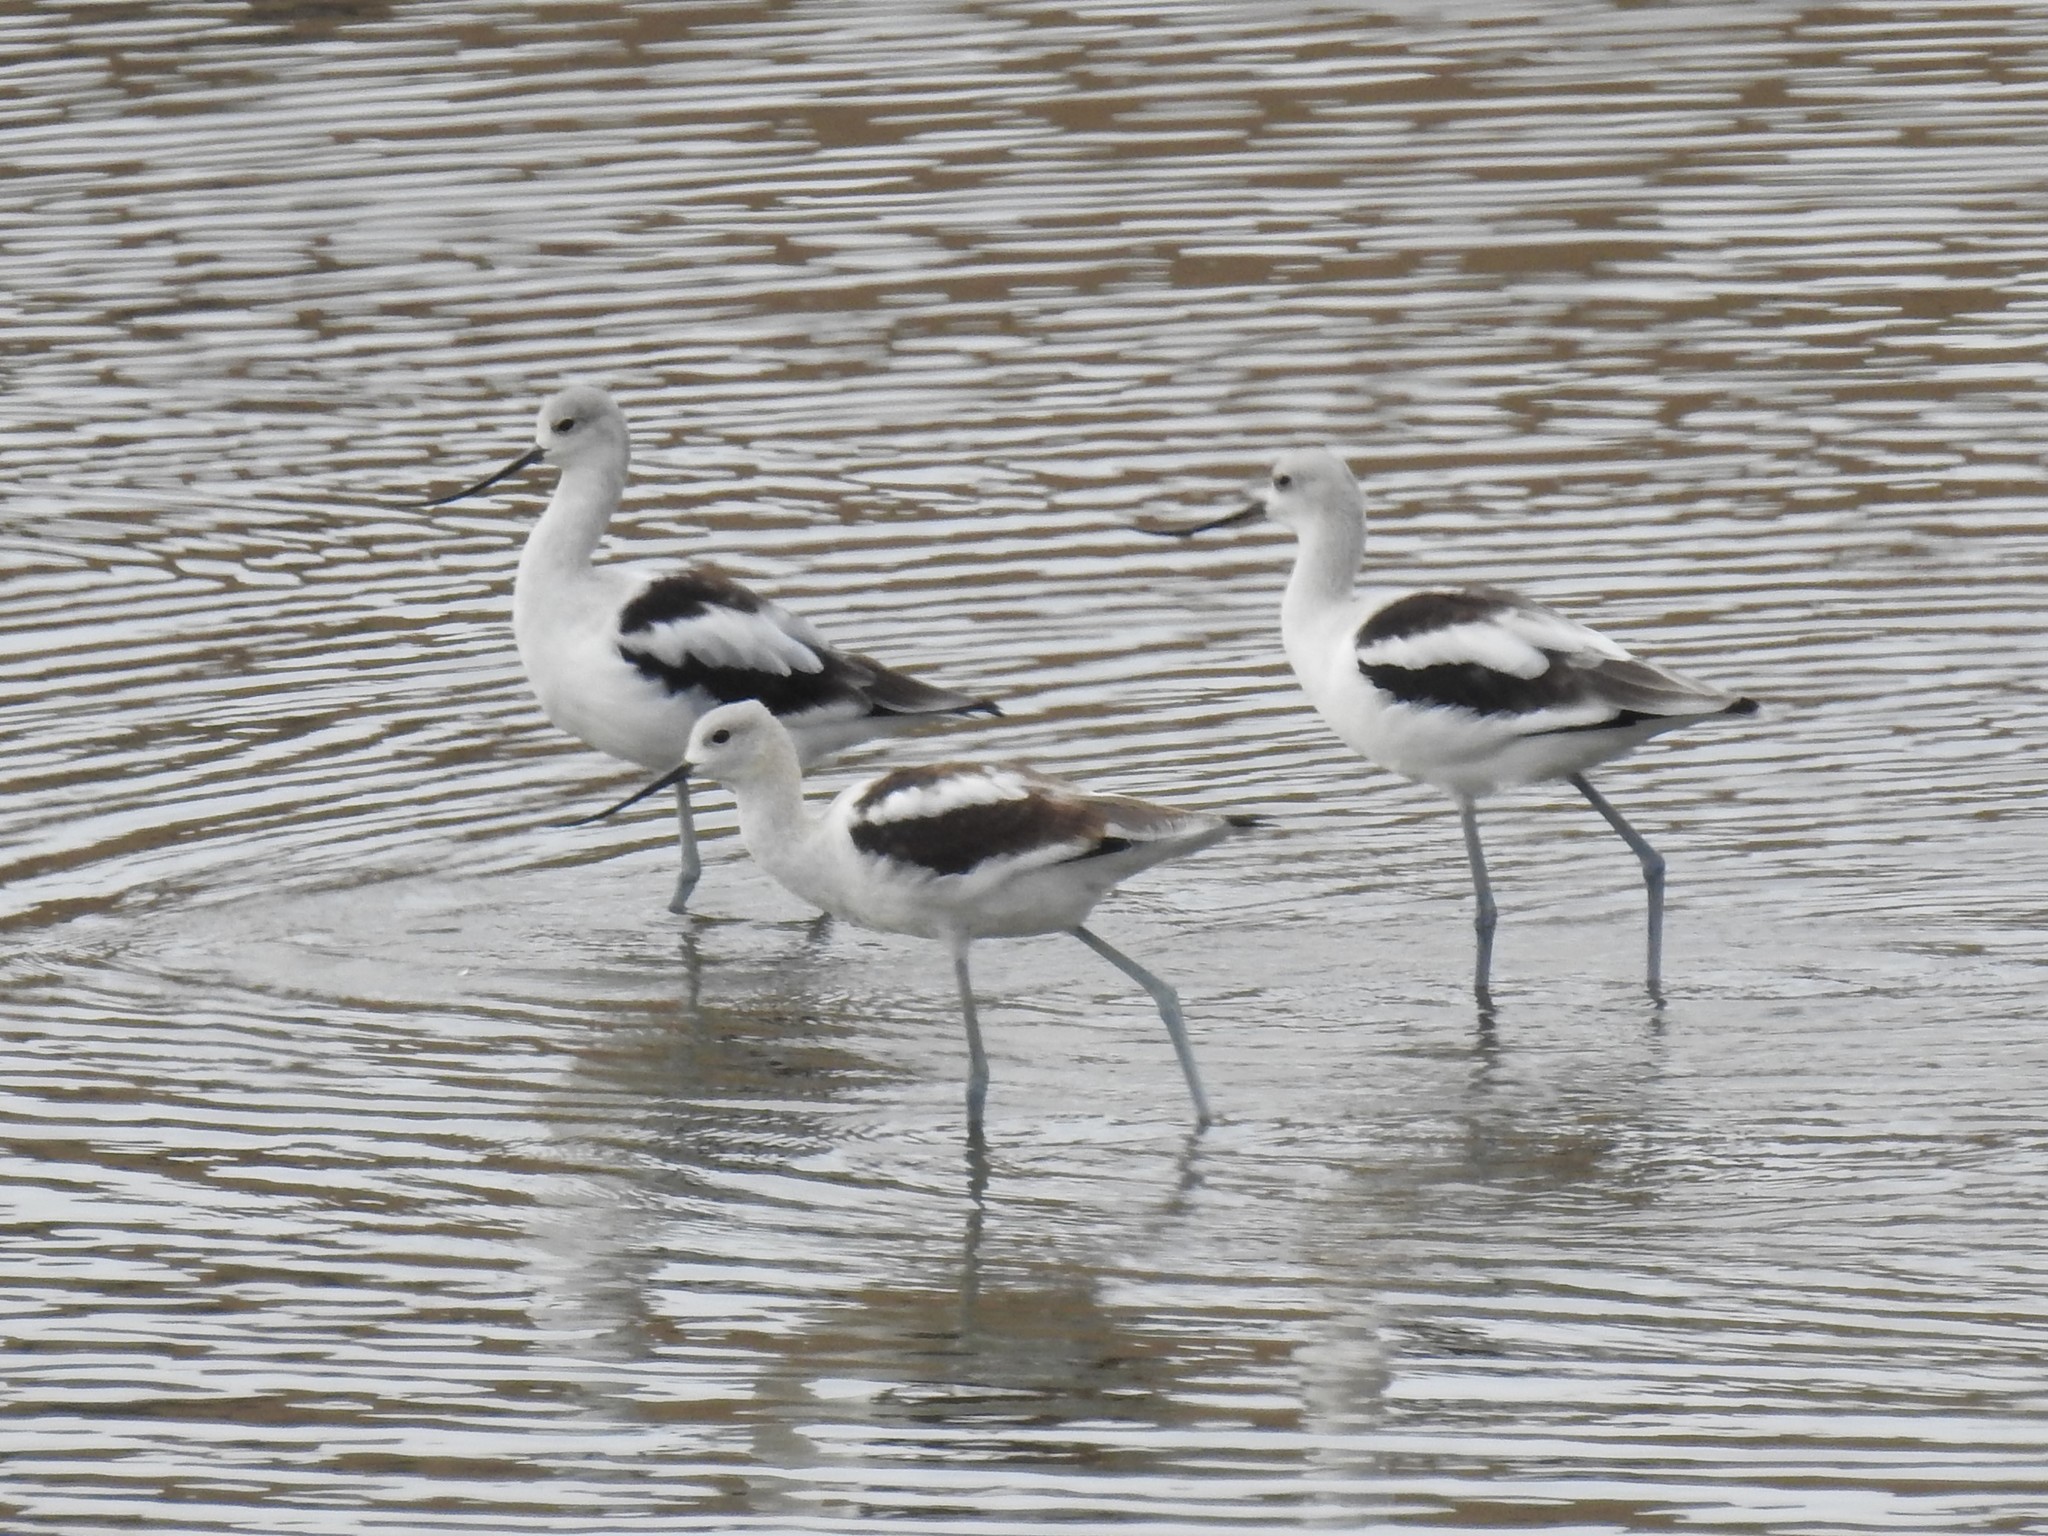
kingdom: Animalia
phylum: Chordata
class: Aves
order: Charadriiformes
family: Recurvirostridae
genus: Recurvirostra
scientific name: Recurvirostra americana
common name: American avocet
